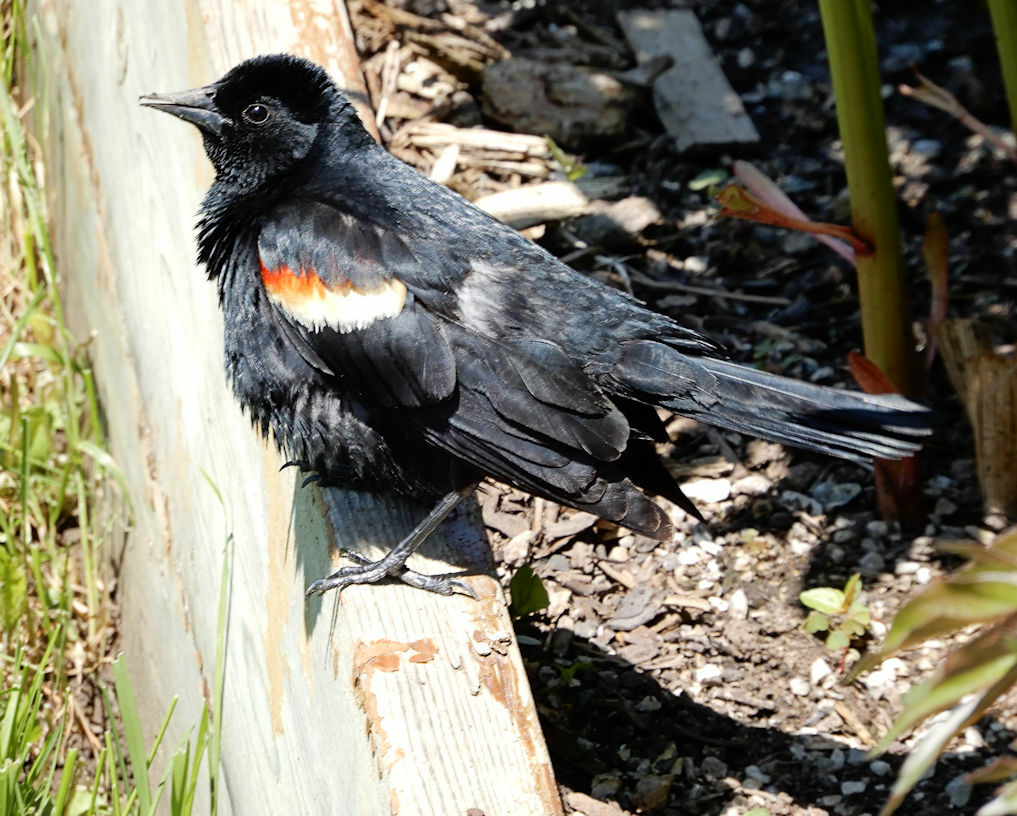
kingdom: Animalia
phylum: Chordata
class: Aves
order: Passeriformes
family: Icteridae
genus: Agelaius
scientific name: Agelaius phoeniceus
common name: Red-winged blackbird
